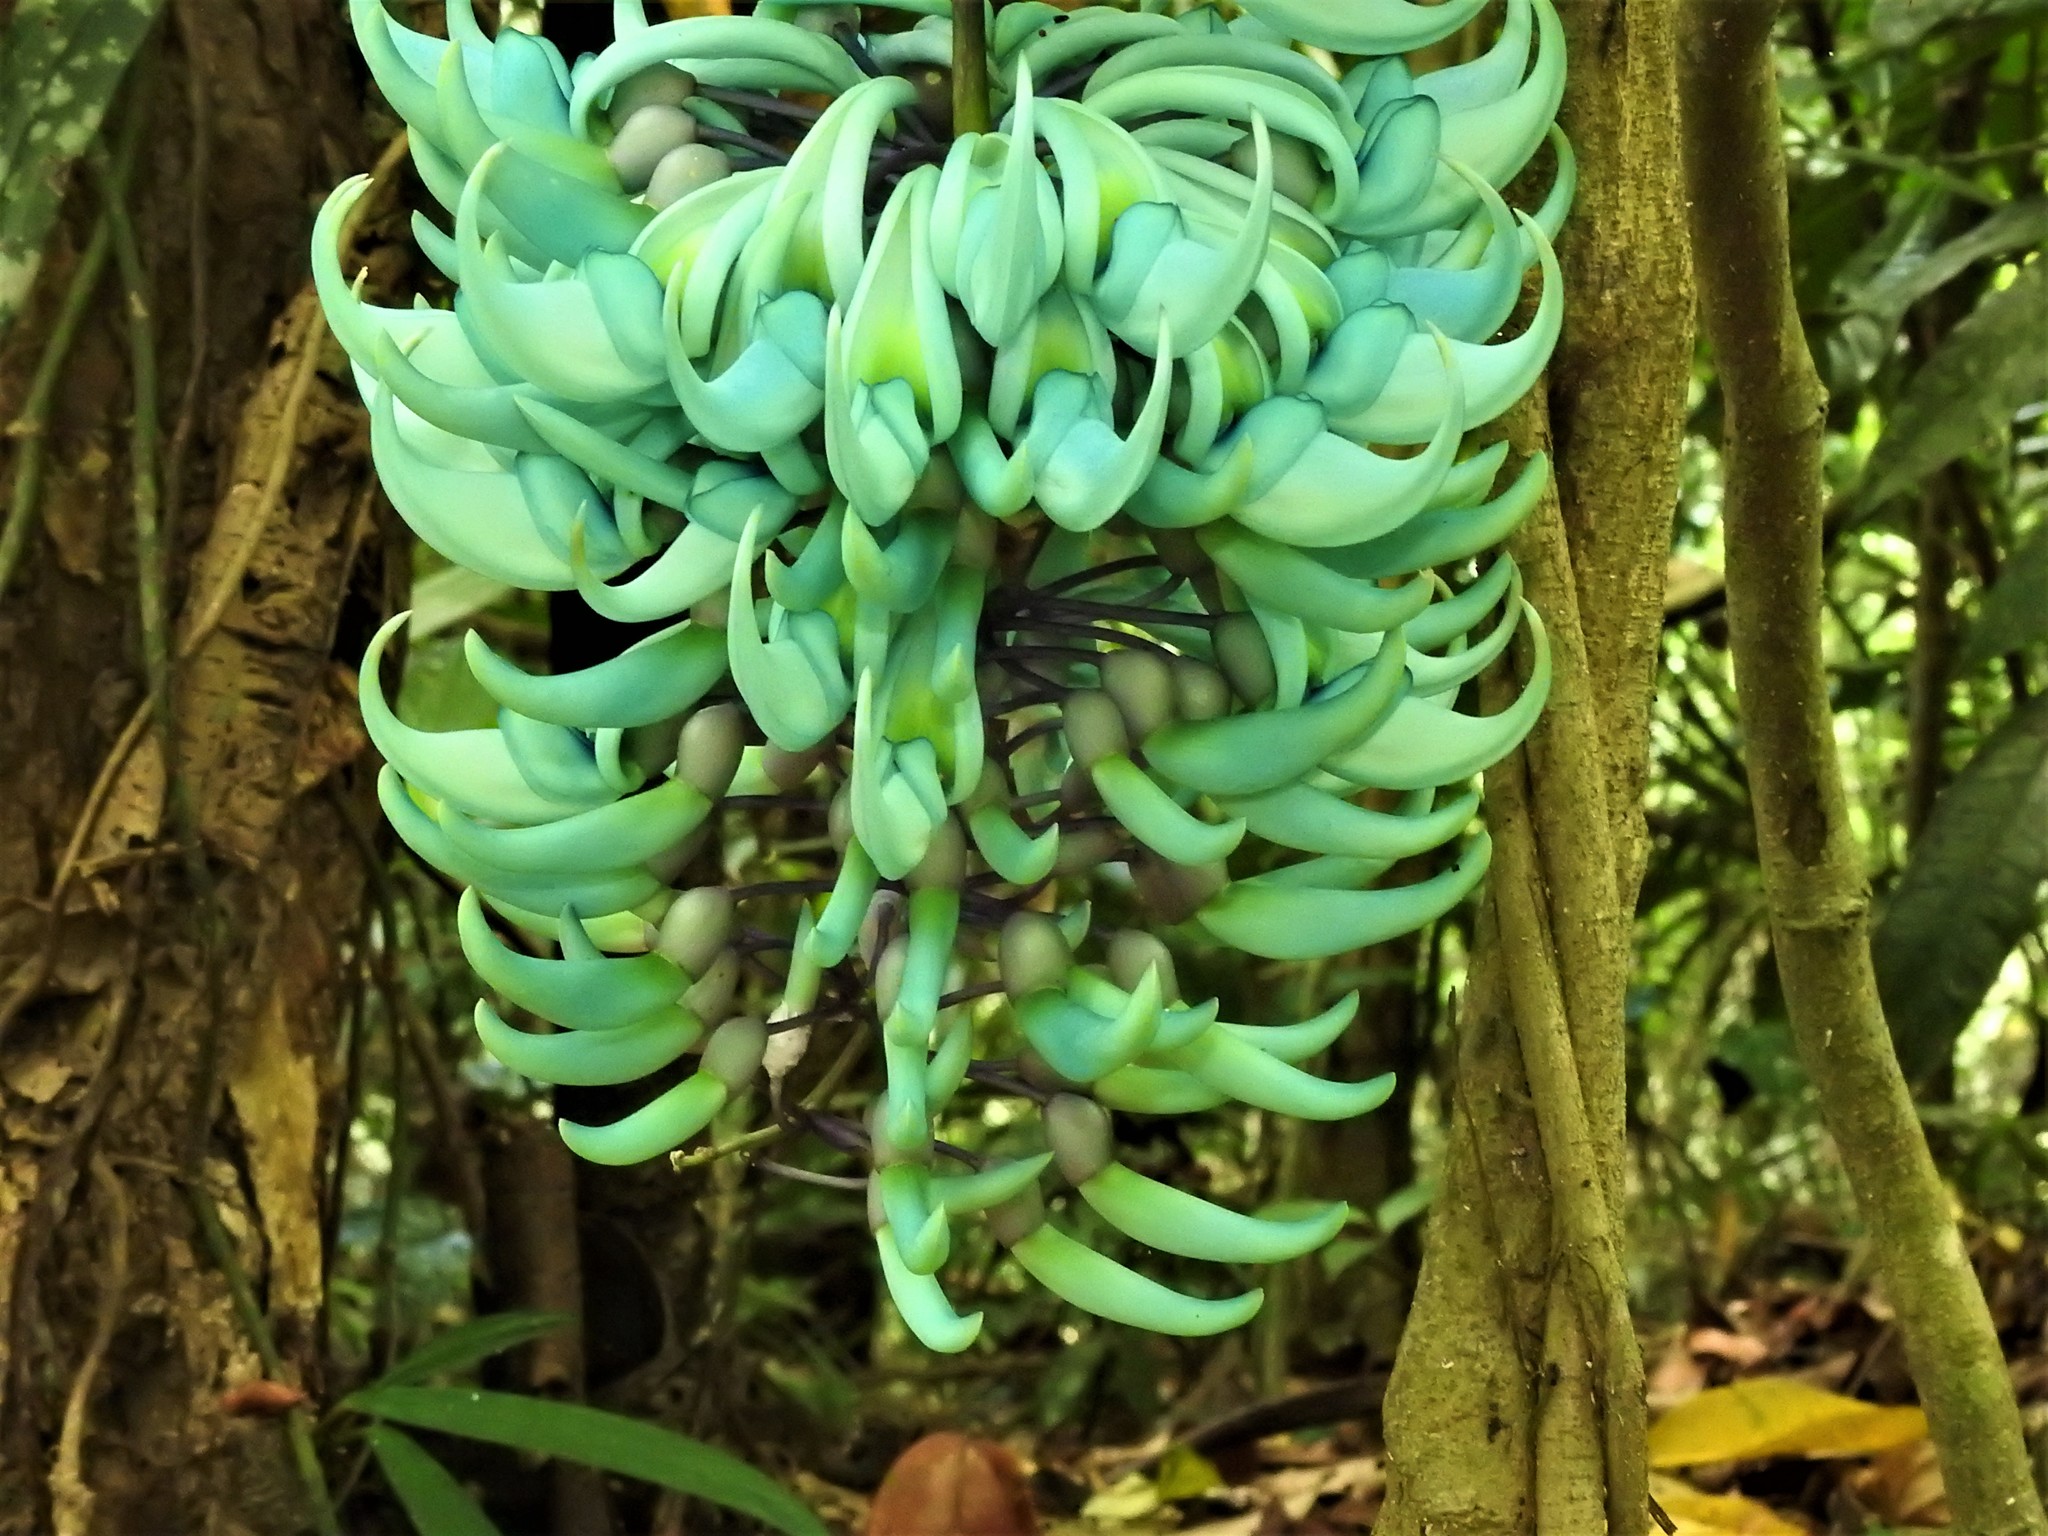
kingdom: Plantae
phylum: Tracheophyta
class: Magnoliopsida
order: Fabales
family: Fabaceae
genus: Strongylodon
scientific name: Strongylodon macrobotrys
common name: Jadevine
